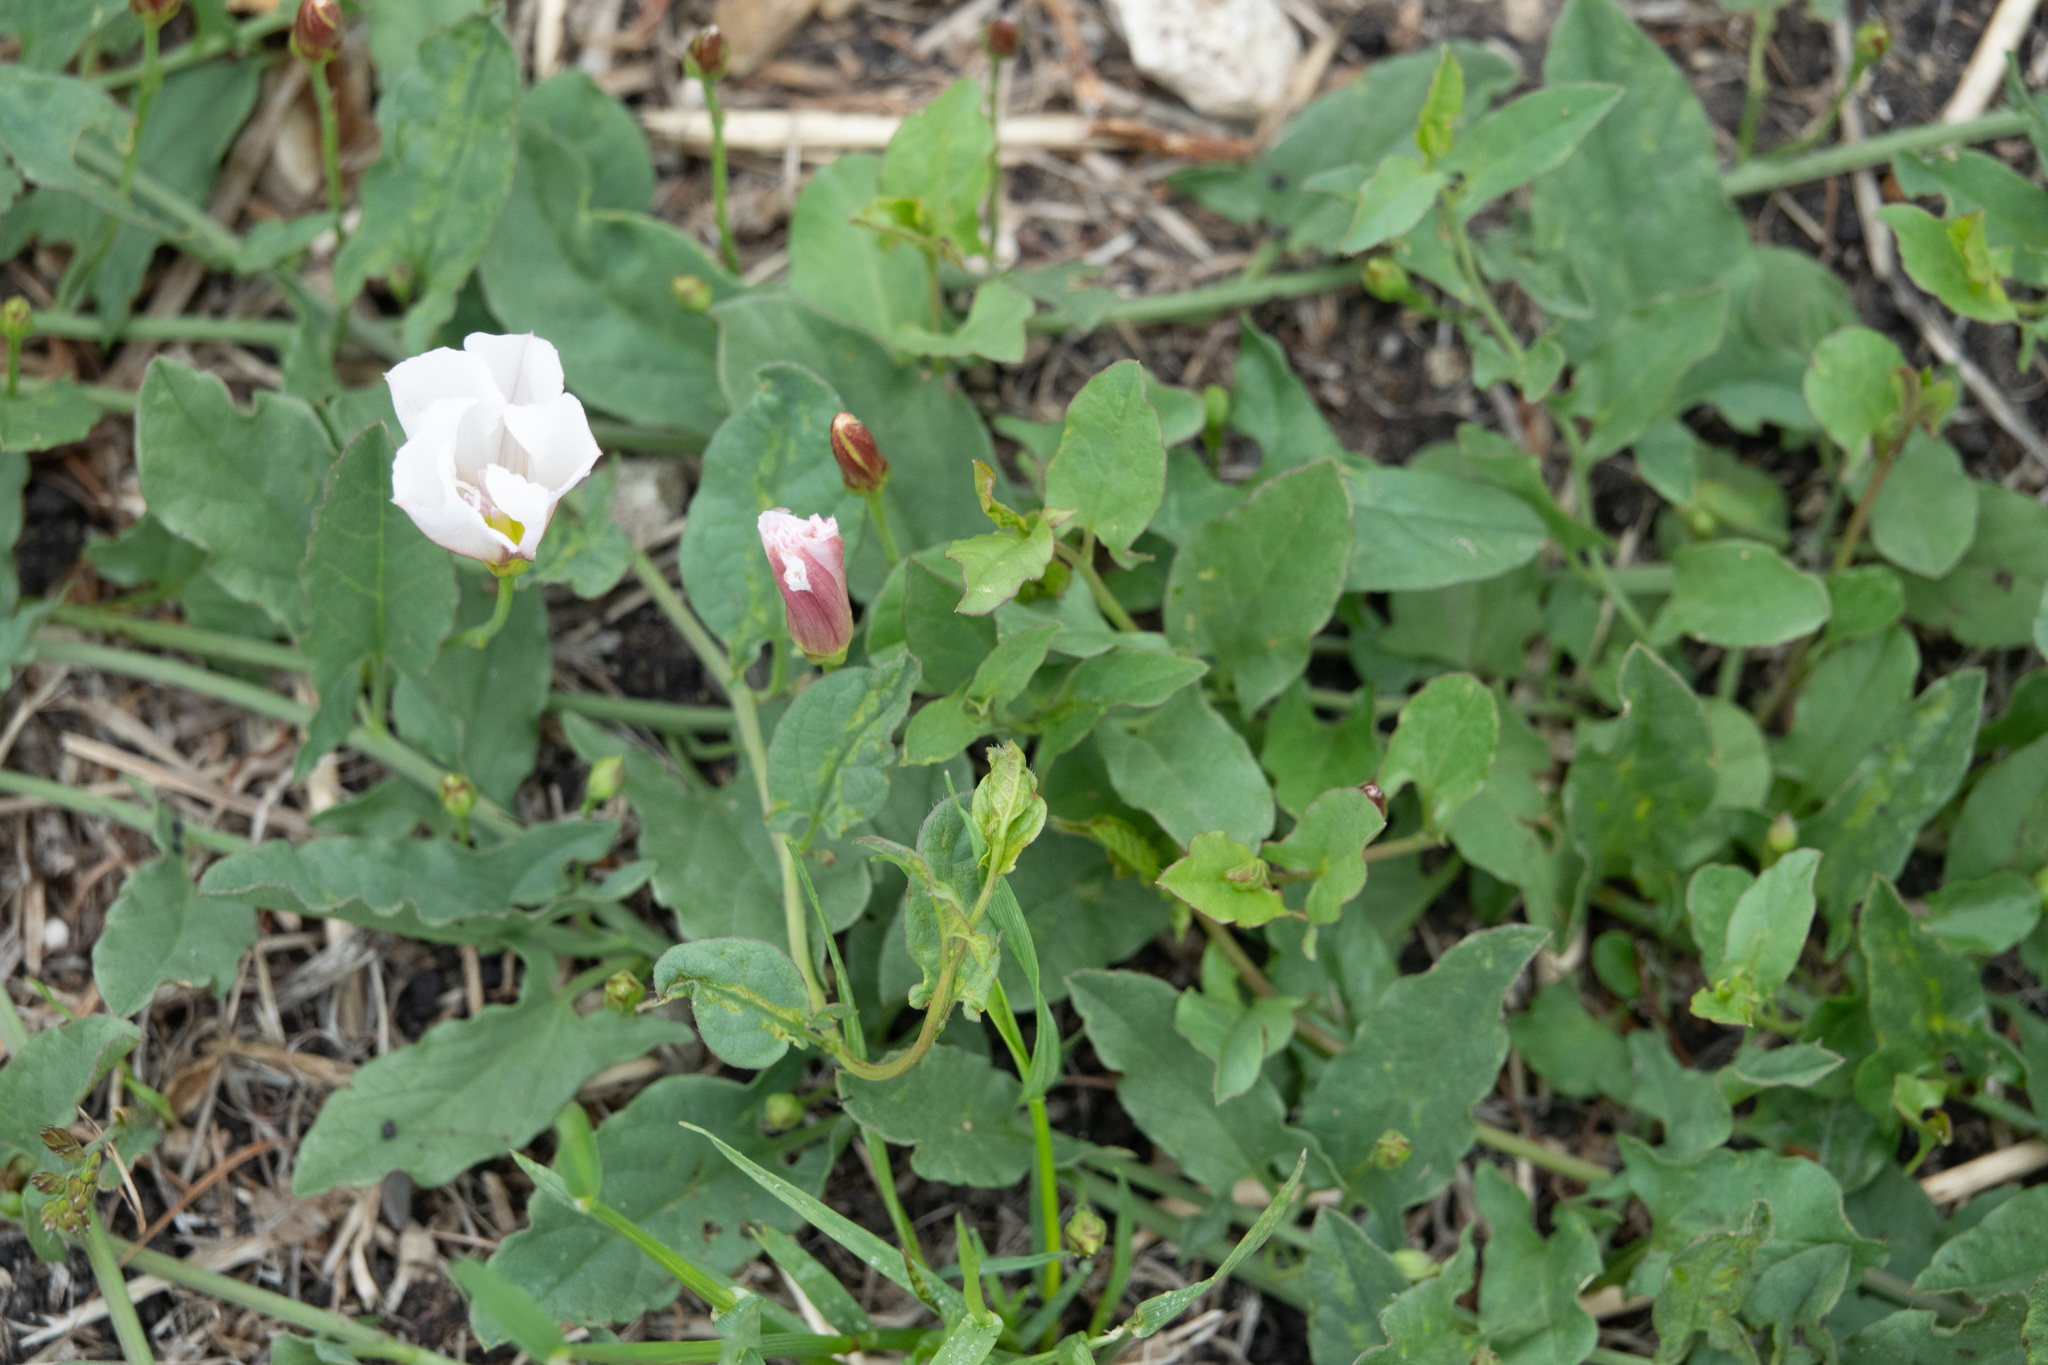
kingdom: Plantae
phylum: Tracheophyta
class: Magnoliopsida
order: Solanales
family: Convolvulaceae
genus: Convolvulus
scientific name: Convolvulus arvensis
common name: Field bindweed
